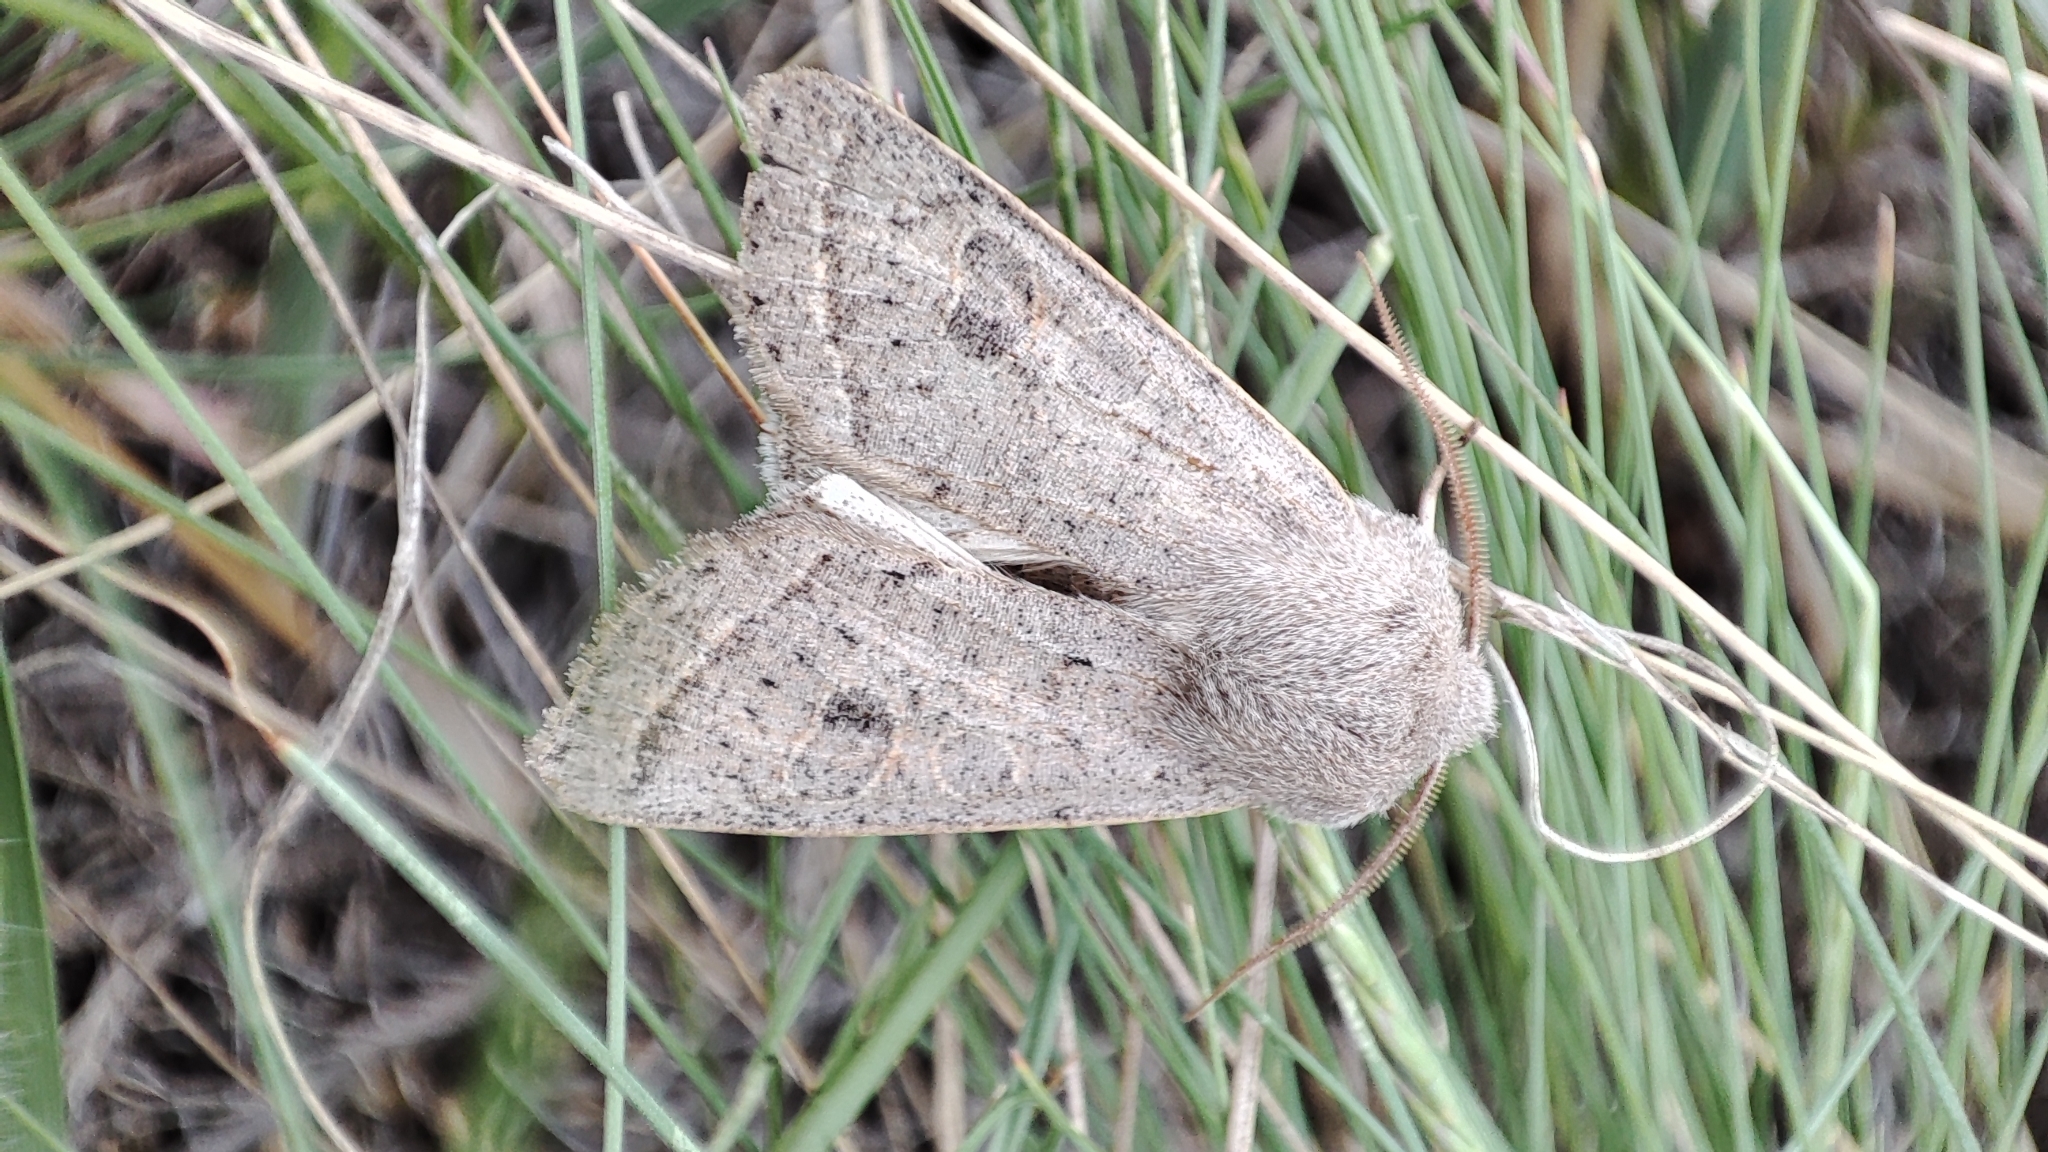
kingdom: Animalia
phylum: Arthropoda
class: Insecta
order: Lepidoptera
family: Noctuidae
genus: Orthosia
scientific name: Orthosia gracilis
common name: Powdered quaker
